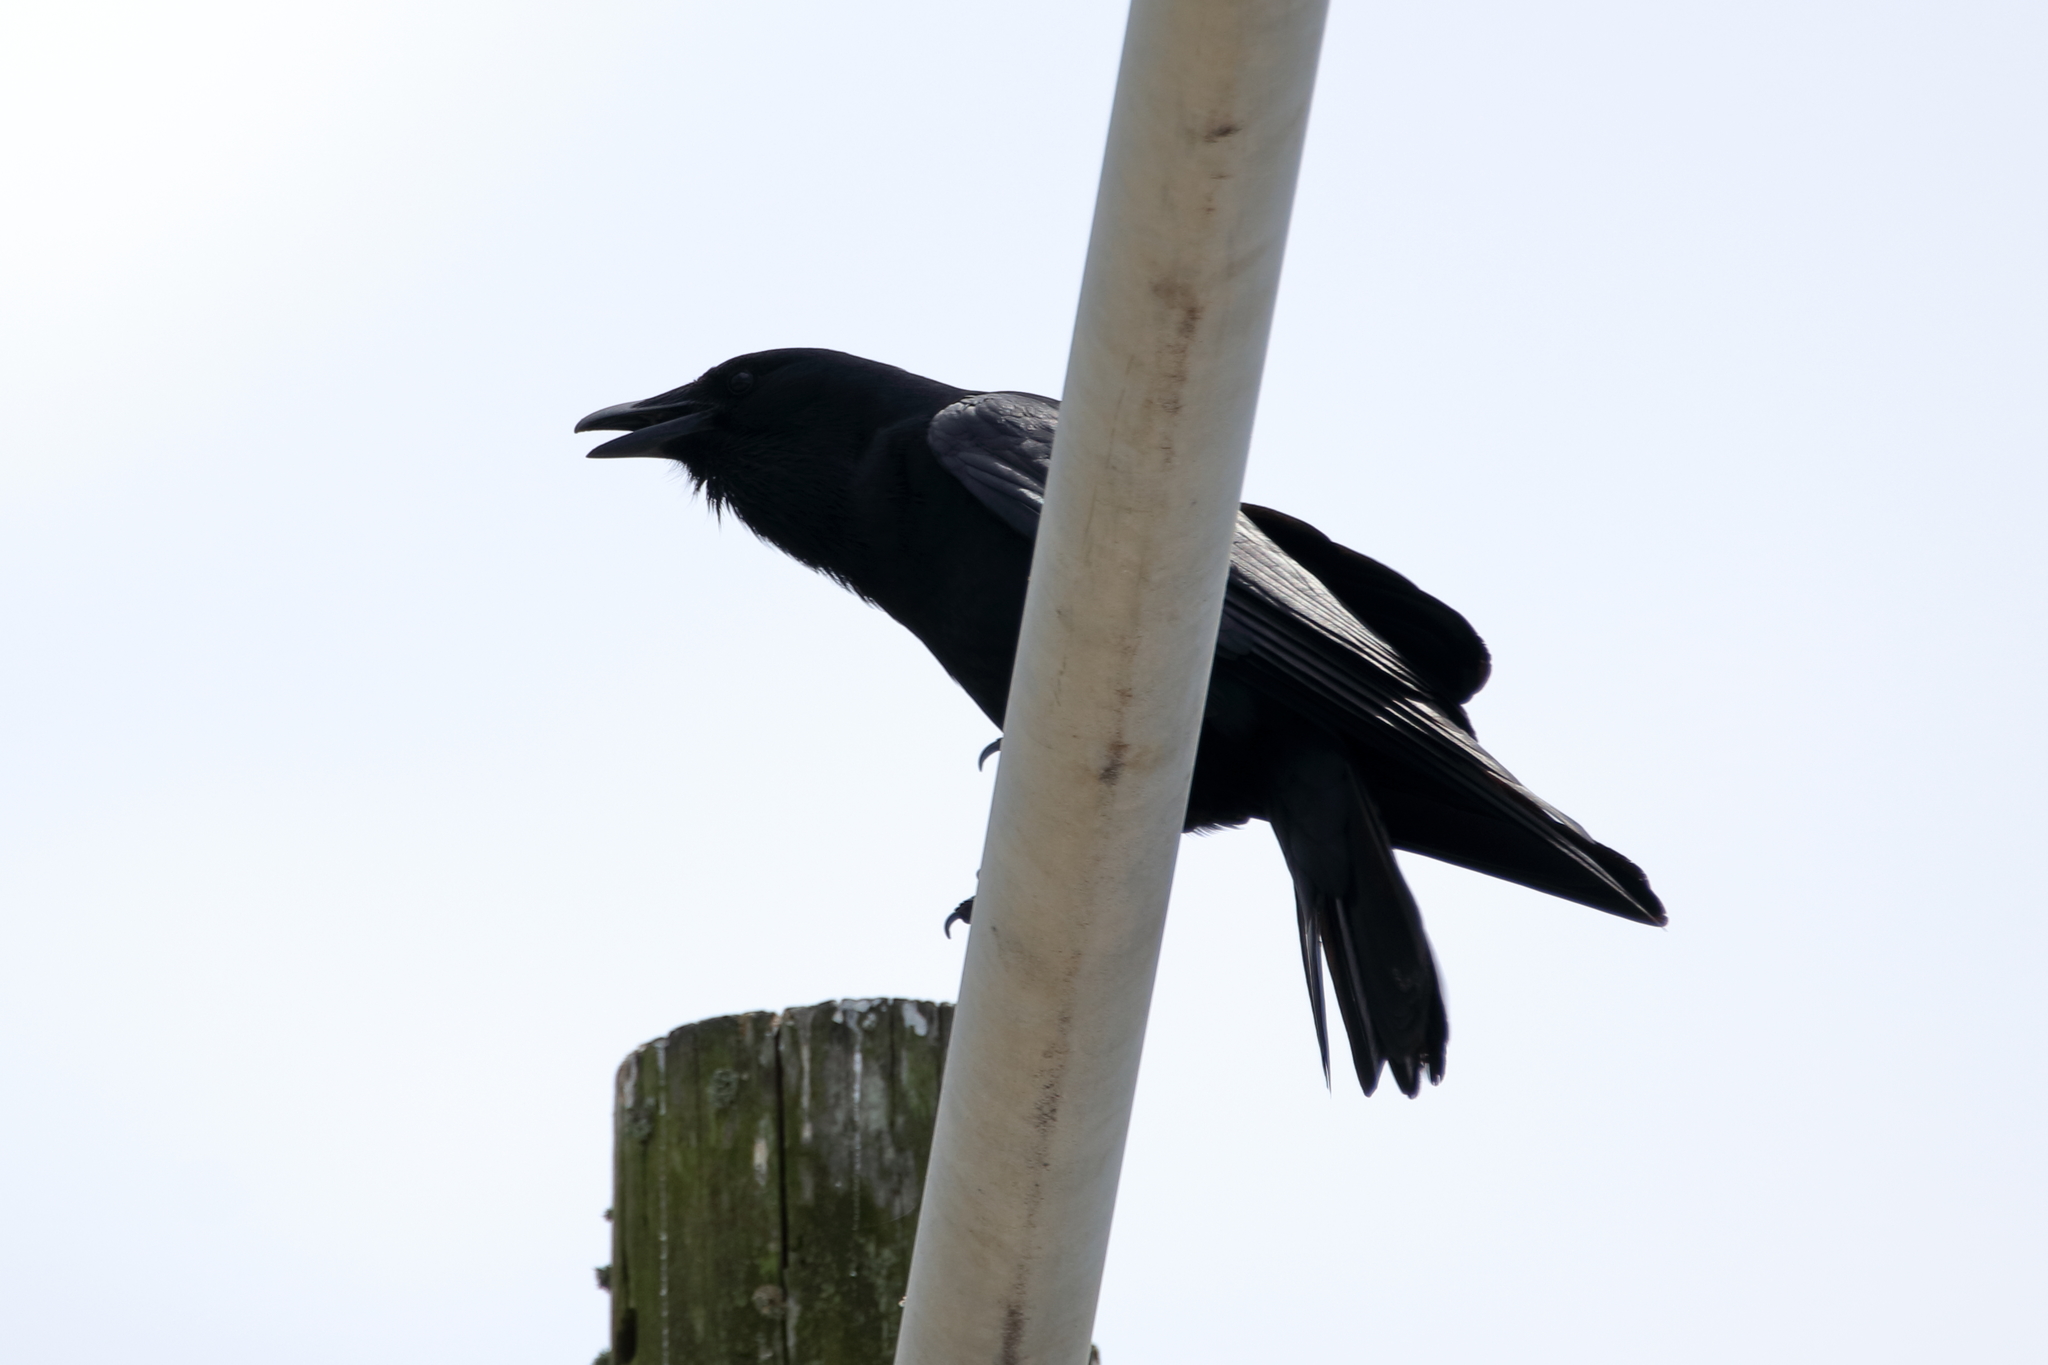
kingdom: Animalia
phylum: Chordata
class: Aves
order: Passeriformes
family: Corvidae
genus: Corvus
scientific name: Corvus brachyrhynchos
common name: American crow
